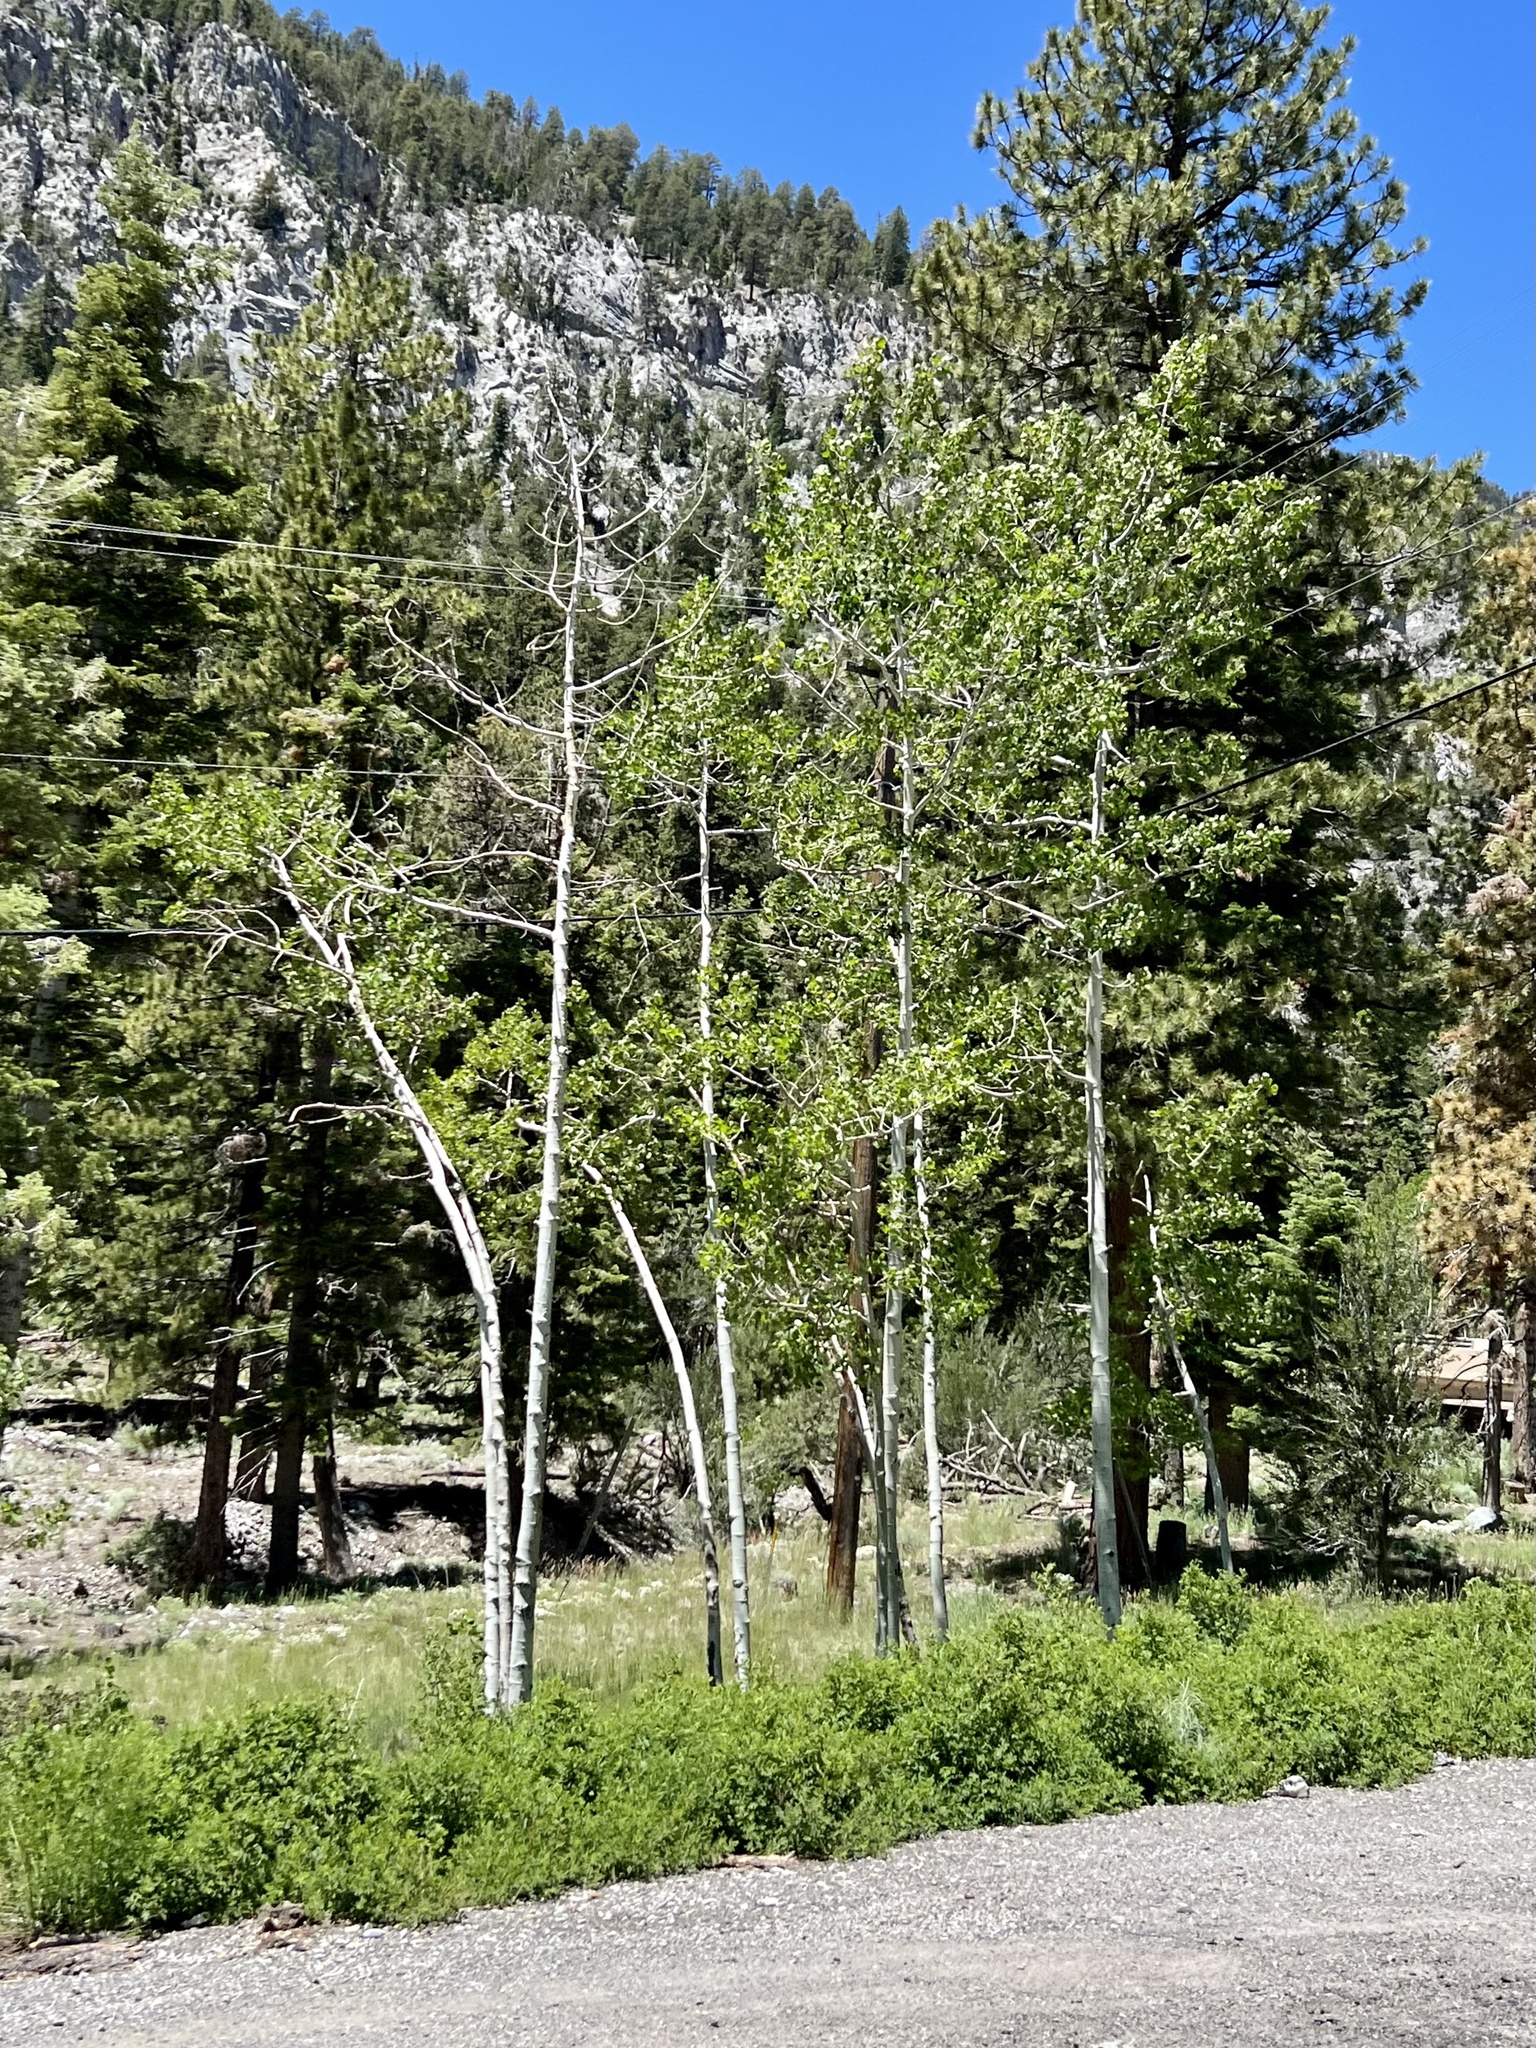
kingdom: Plantae
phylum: Tracheophyta
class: Magnoliopsida
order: Malpighiales
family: Salicaceae
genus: Populus
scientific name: Populus tremuloides
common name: Quaking aspen
